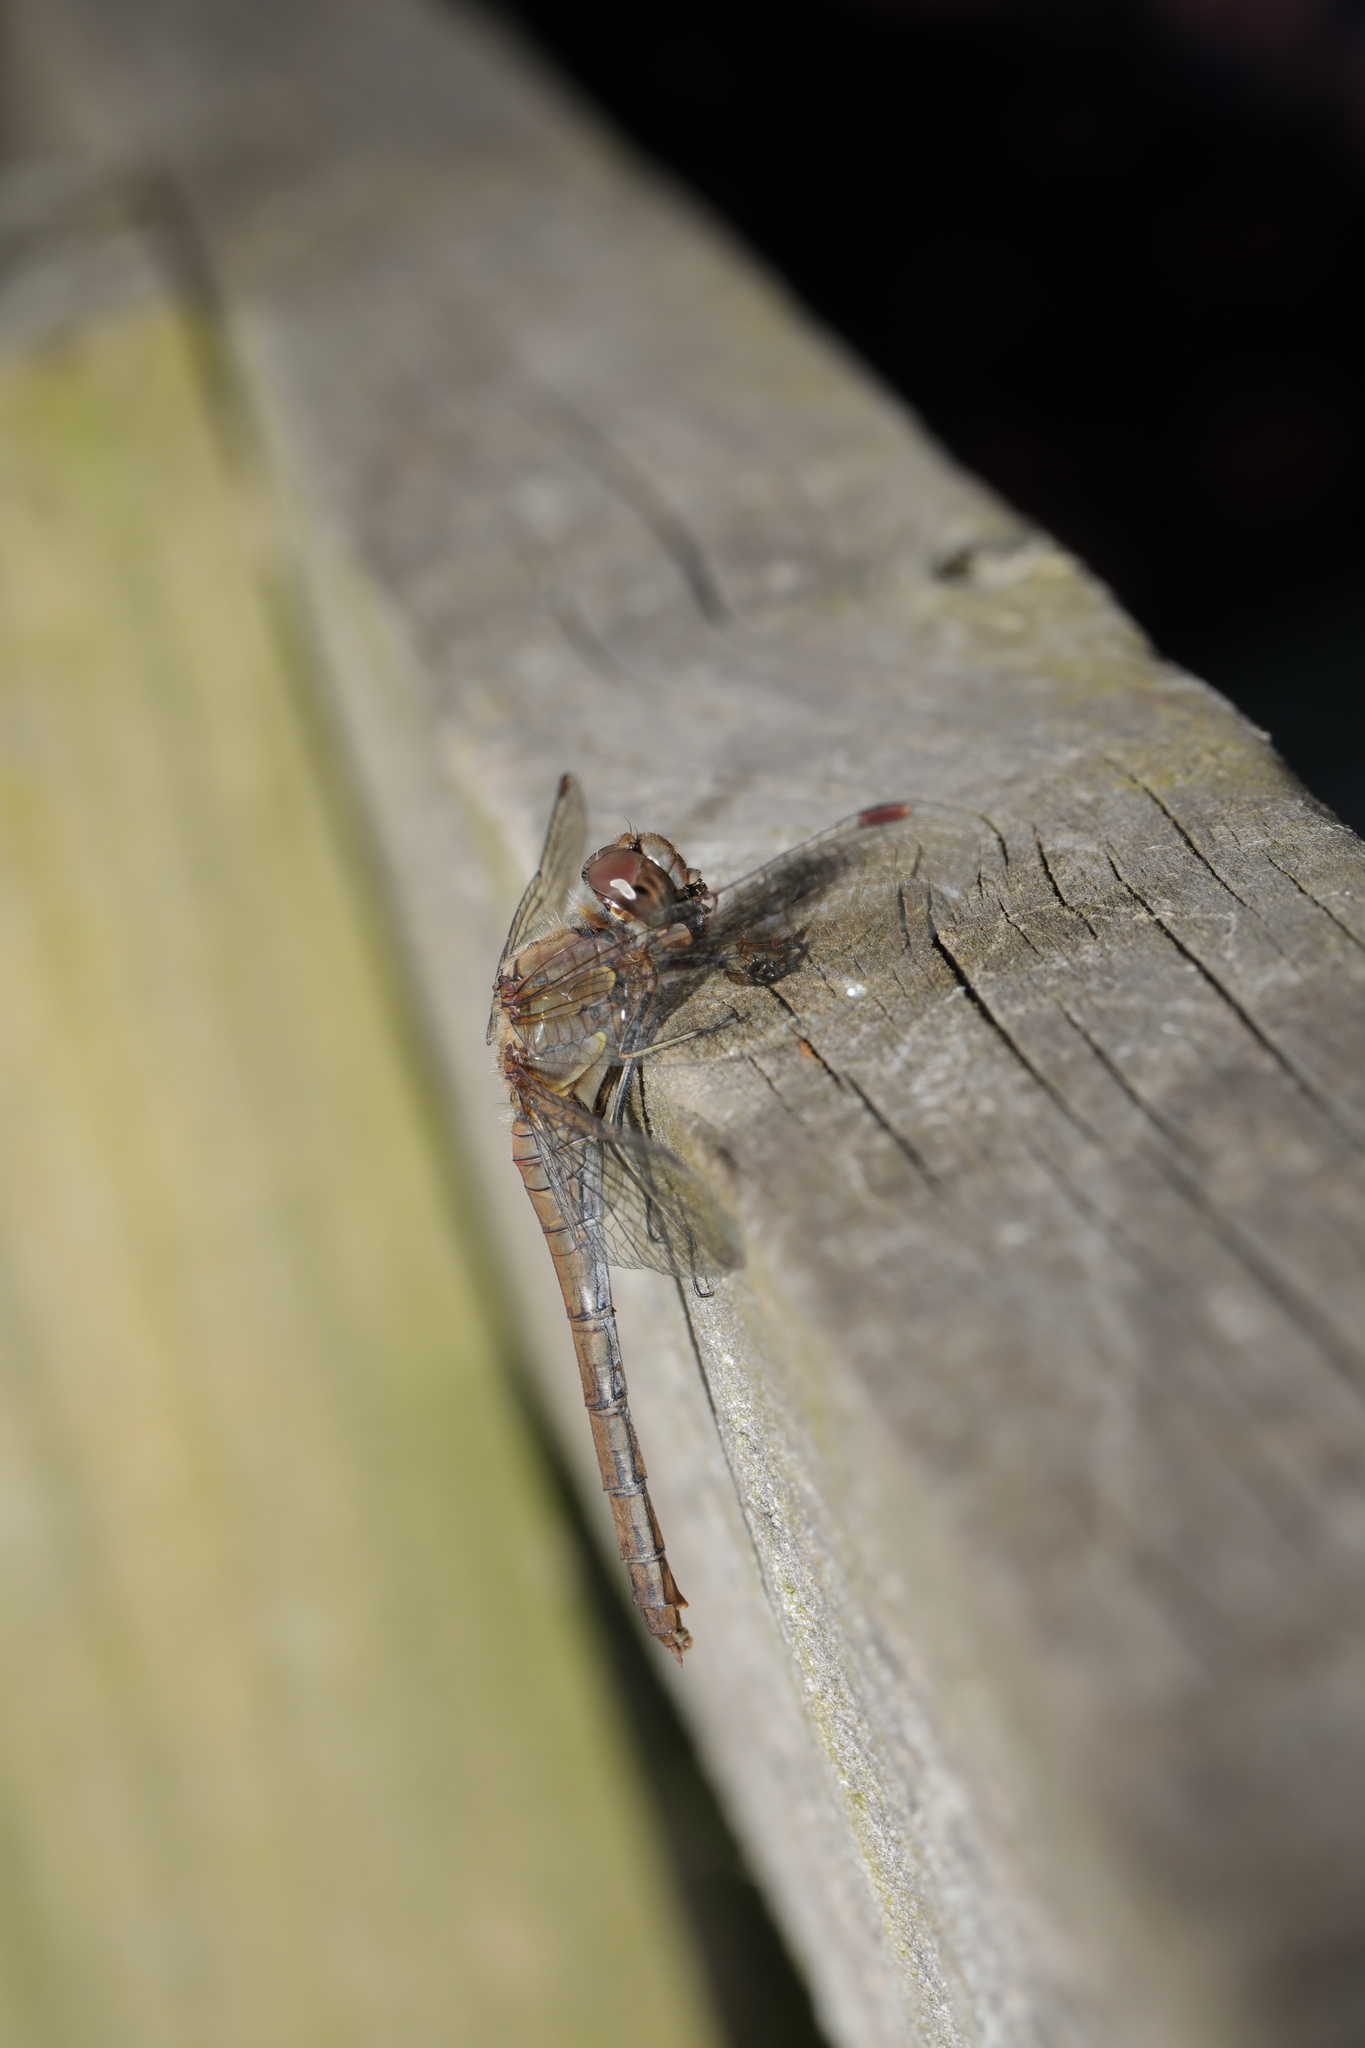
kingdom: Animalia
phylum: Arthropoda
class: Insecta
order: Odonata
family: Libellulidae
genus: Sympetrum
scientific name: Sympetrum striolatum
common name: Common darter
